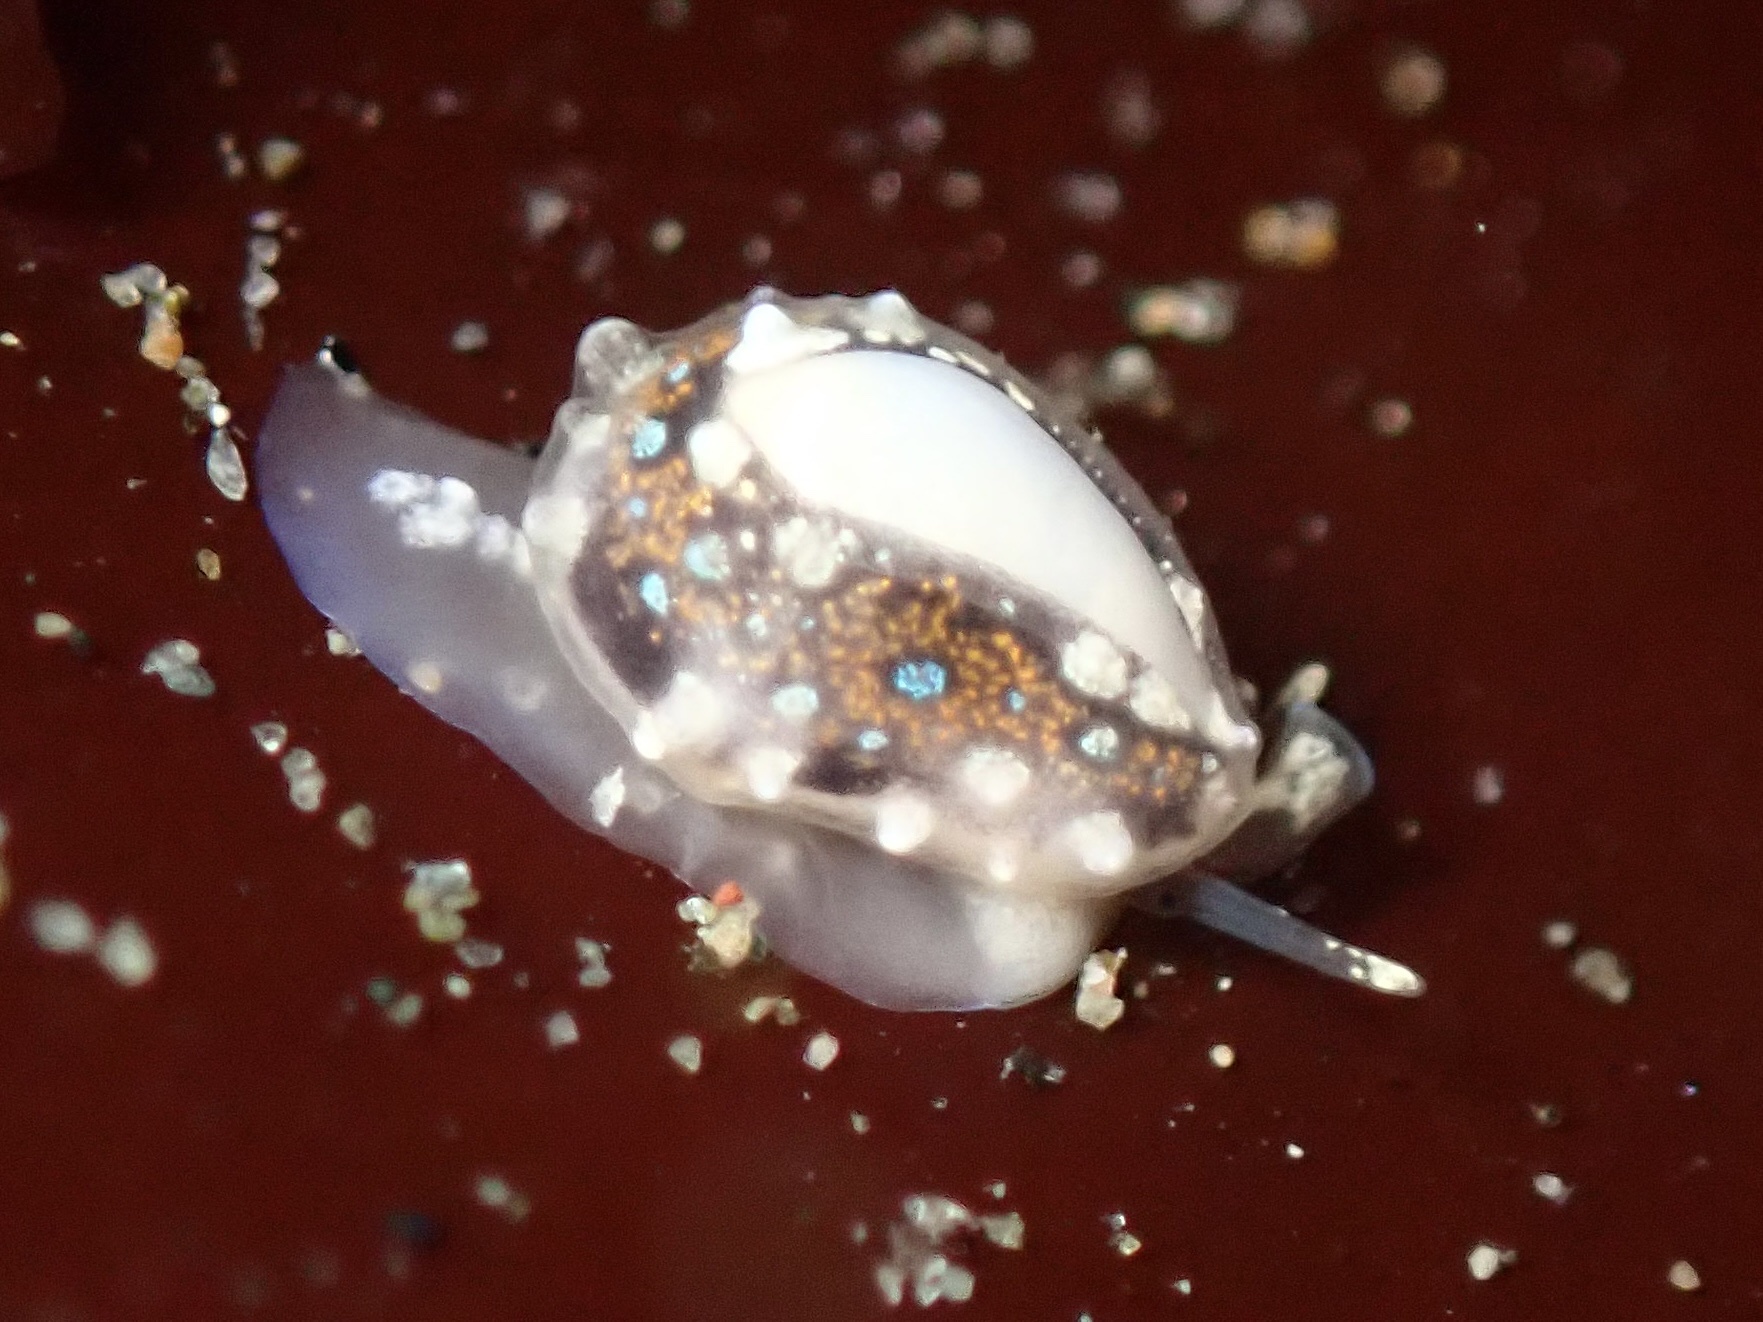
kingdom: Animalia
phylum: Mollusca
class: Gastropoda
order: Neogastropoda
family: Granulinidae
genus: Granulina
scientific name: Granulina margaritula
